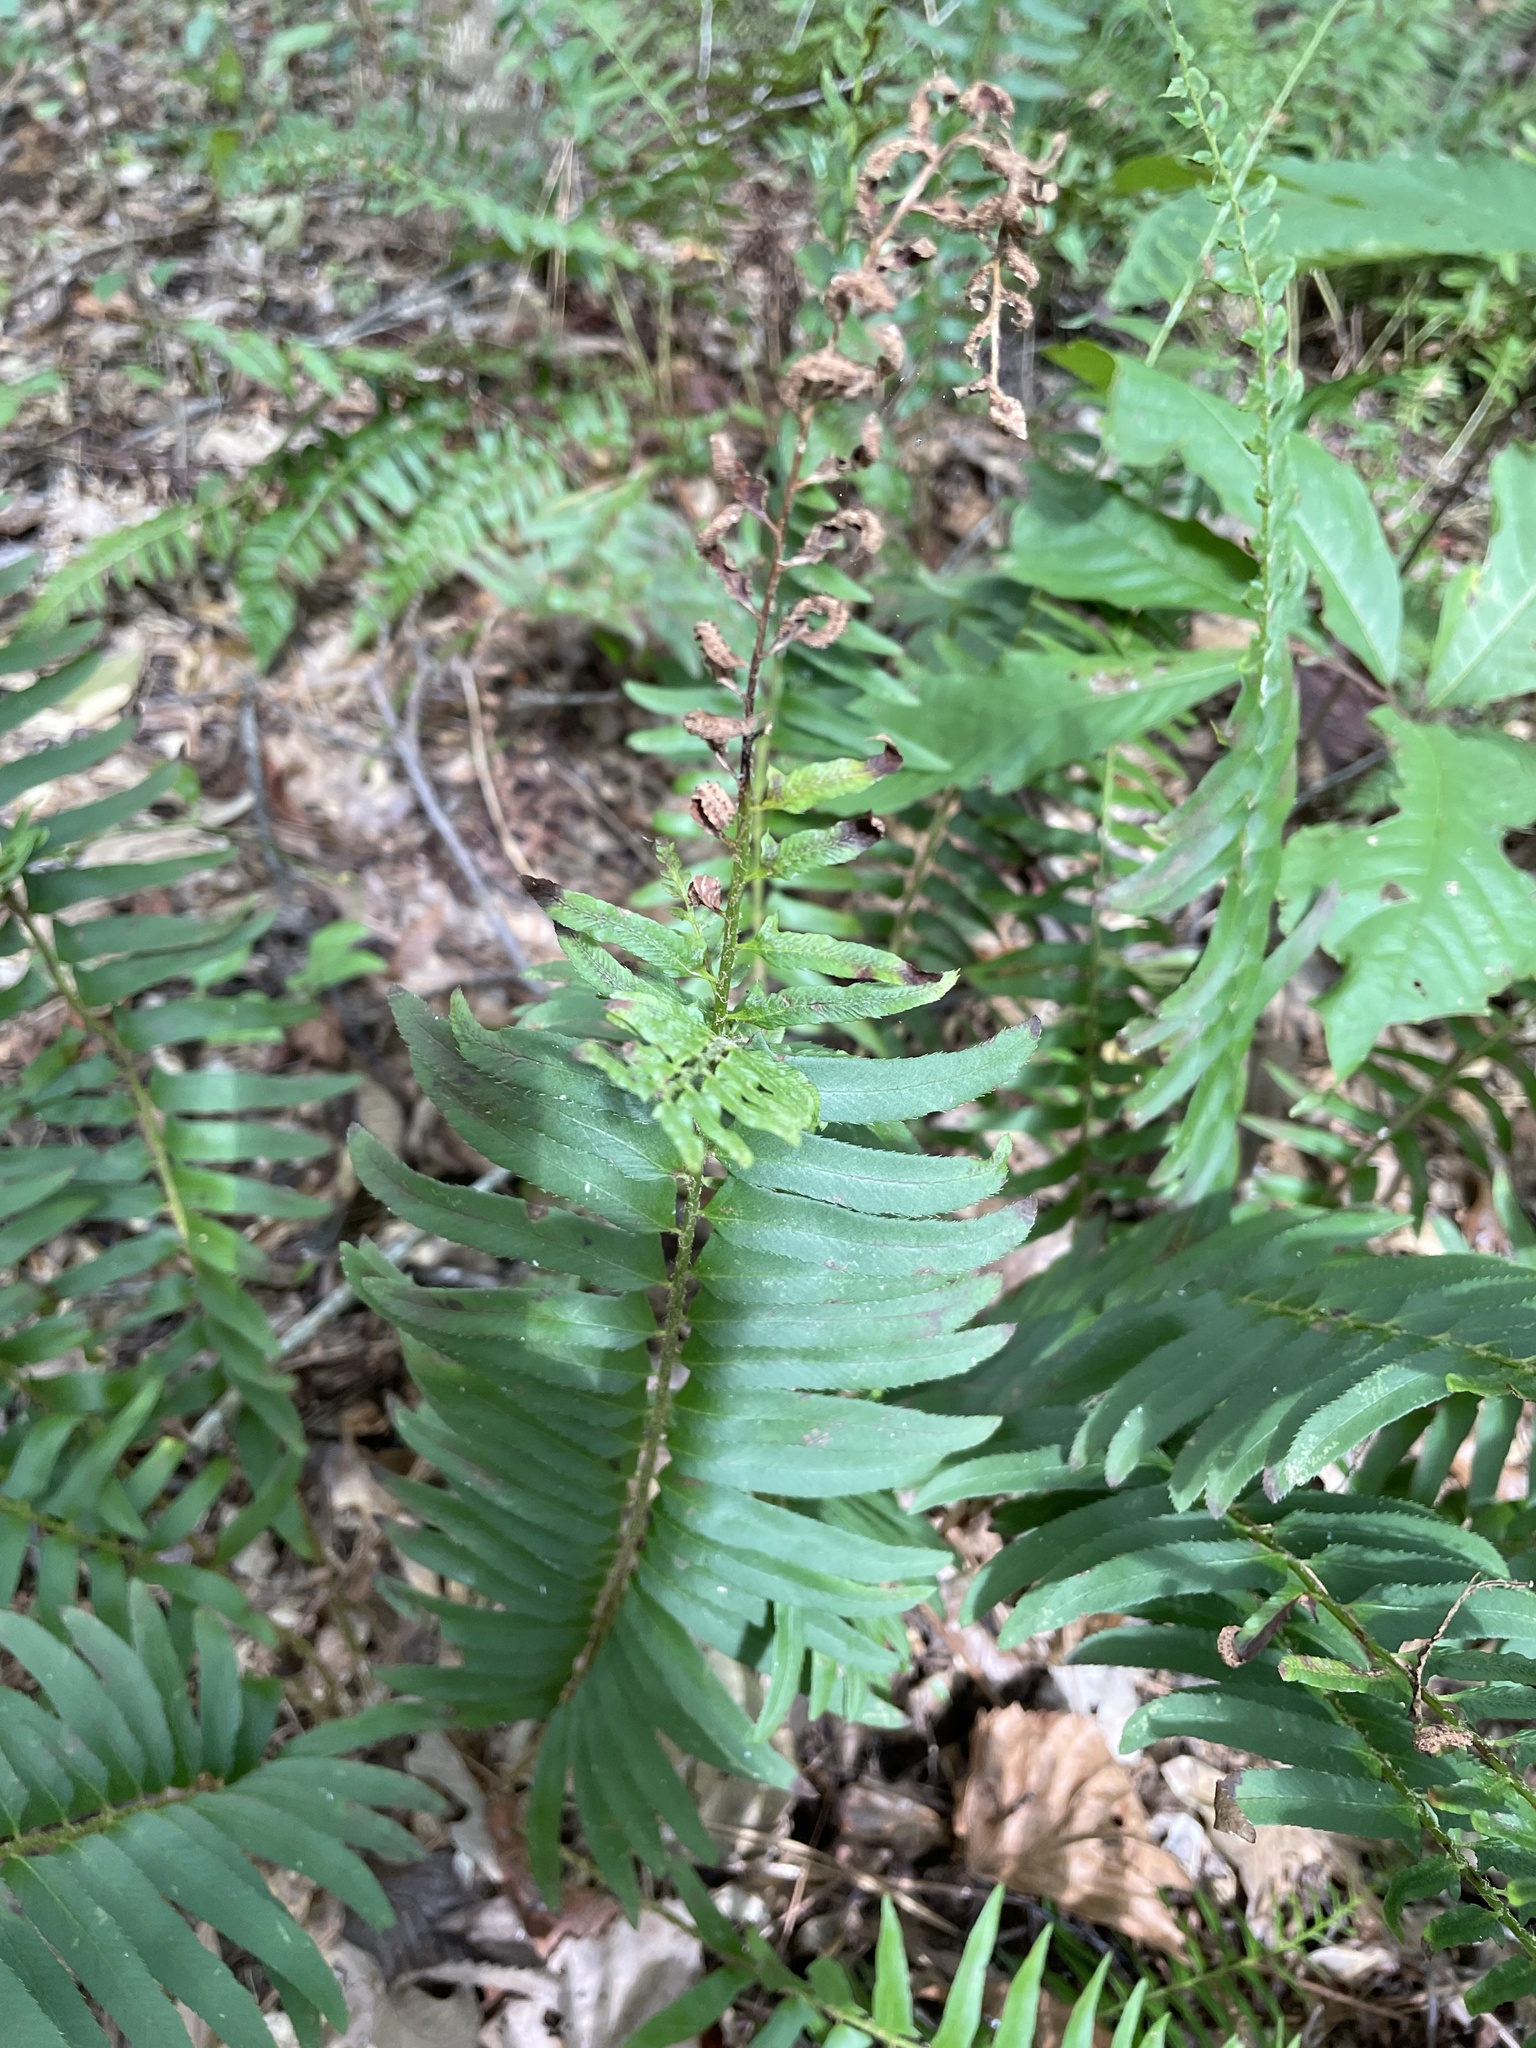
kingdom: Plantae
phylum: Tracheophyta
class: Polypodiopsida
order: Polypodiales
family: Dryopteridaceae
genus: Polystichum
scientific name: Polystichum acrostichoides
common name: Christmas fern
